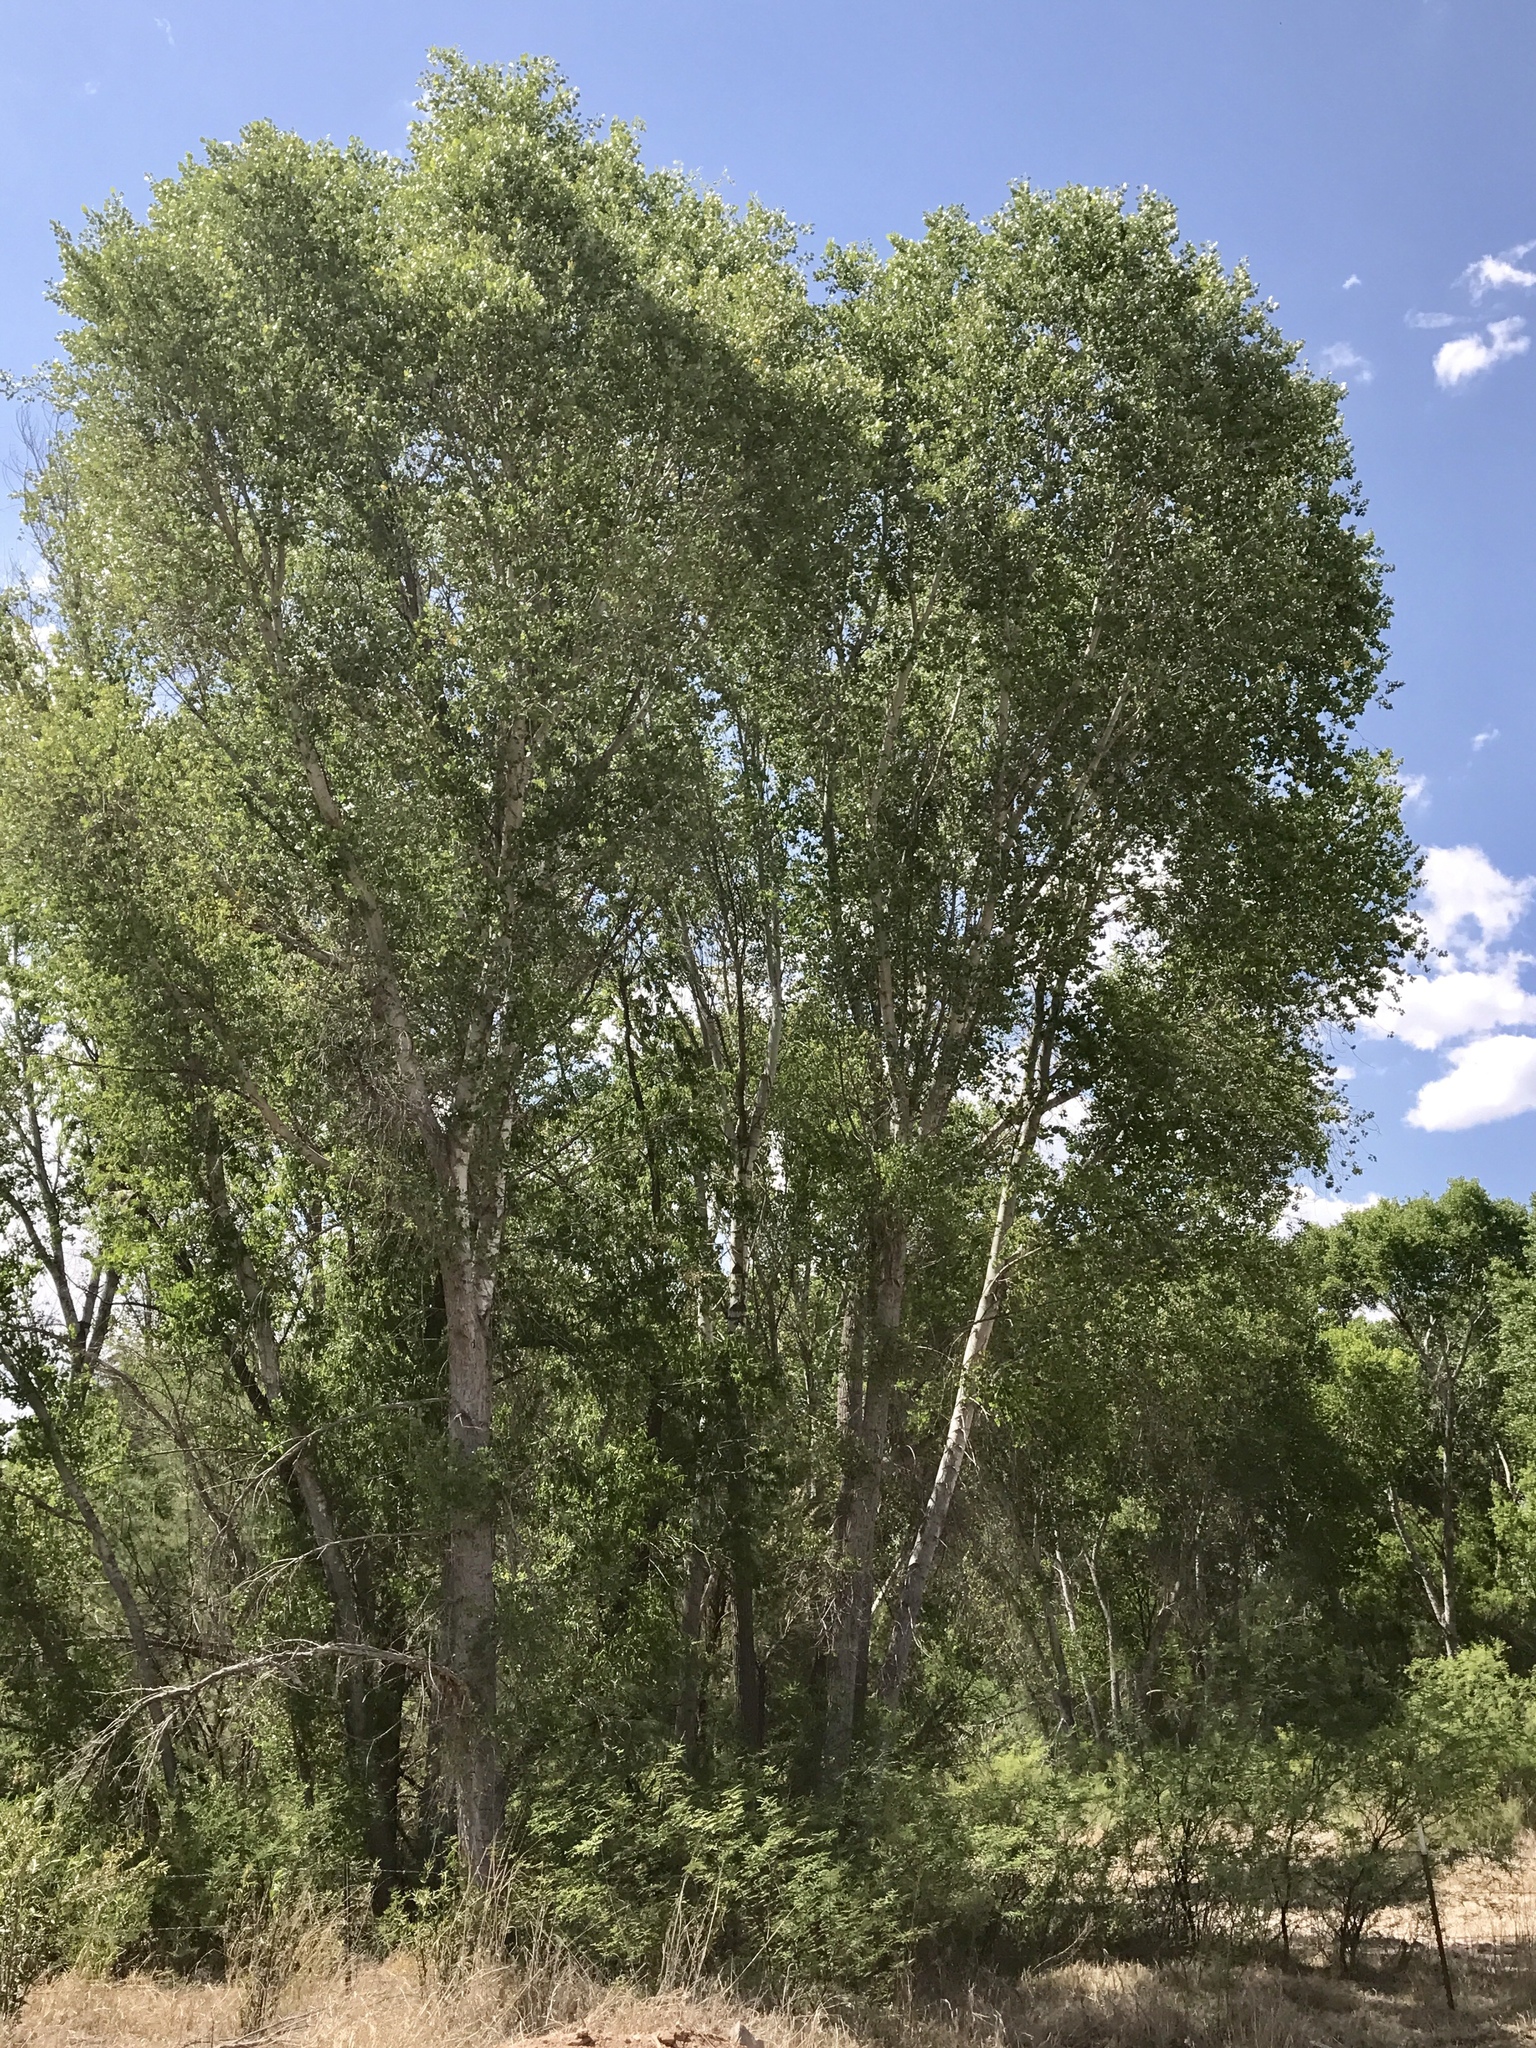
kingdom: Plantae
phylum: Tracheophyta
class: Magnoliopsida
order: Malpighiales
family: Salicaceae
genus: Populus
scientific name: Populus fremontii
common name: Fremont's cottonwood
